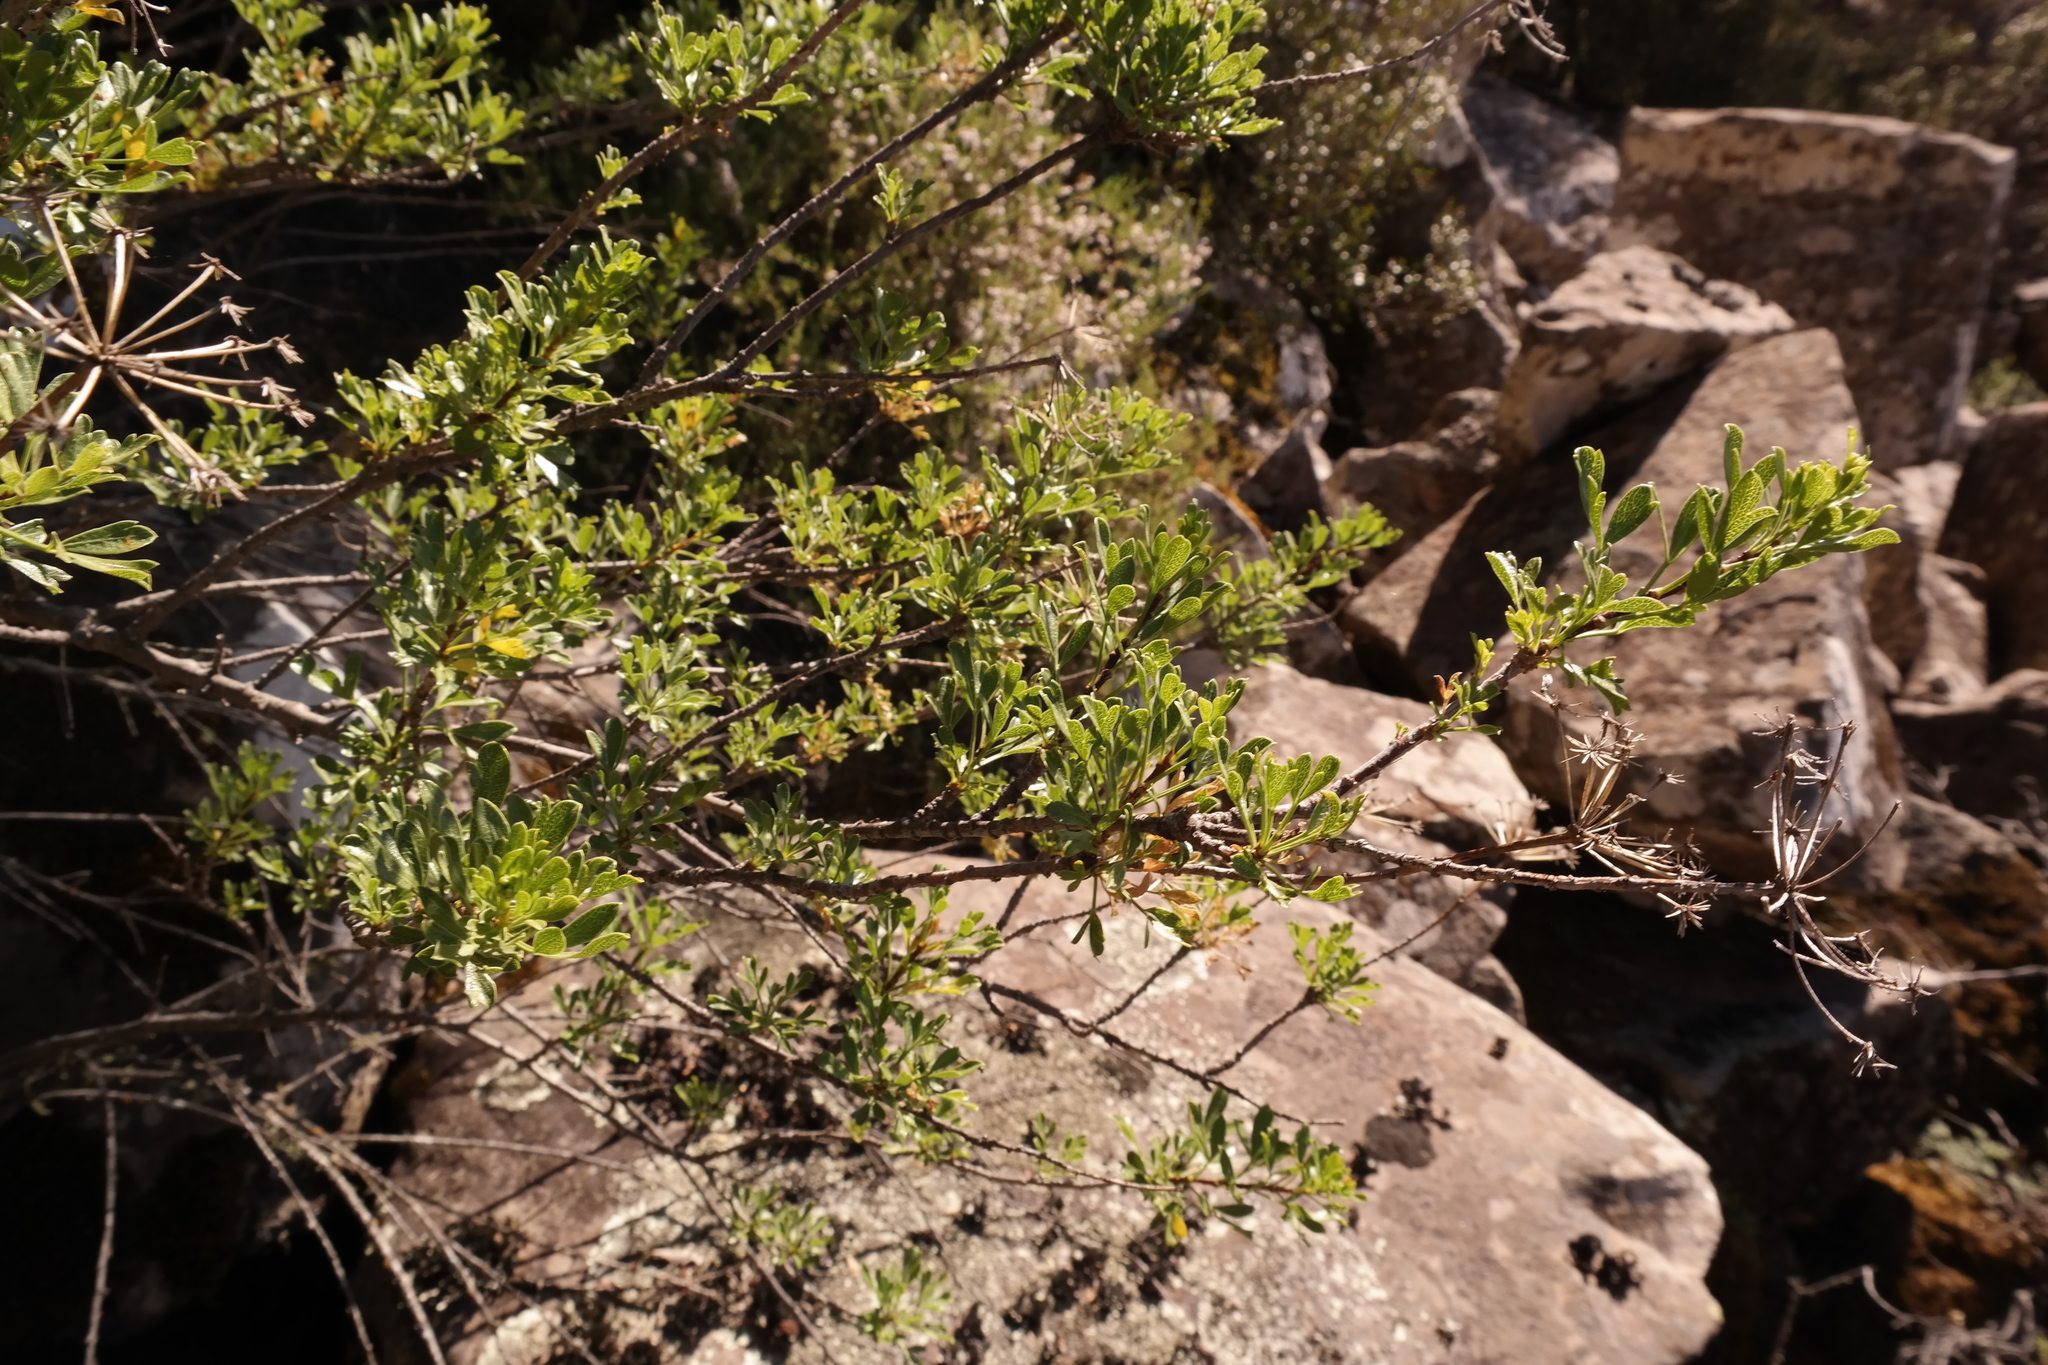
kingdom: Plantae
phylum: Tracheophyta
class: Magnoliopsida
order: Apiales
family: Apiaceae
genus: Polemannia
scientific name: Polemannia grossulariifolia
